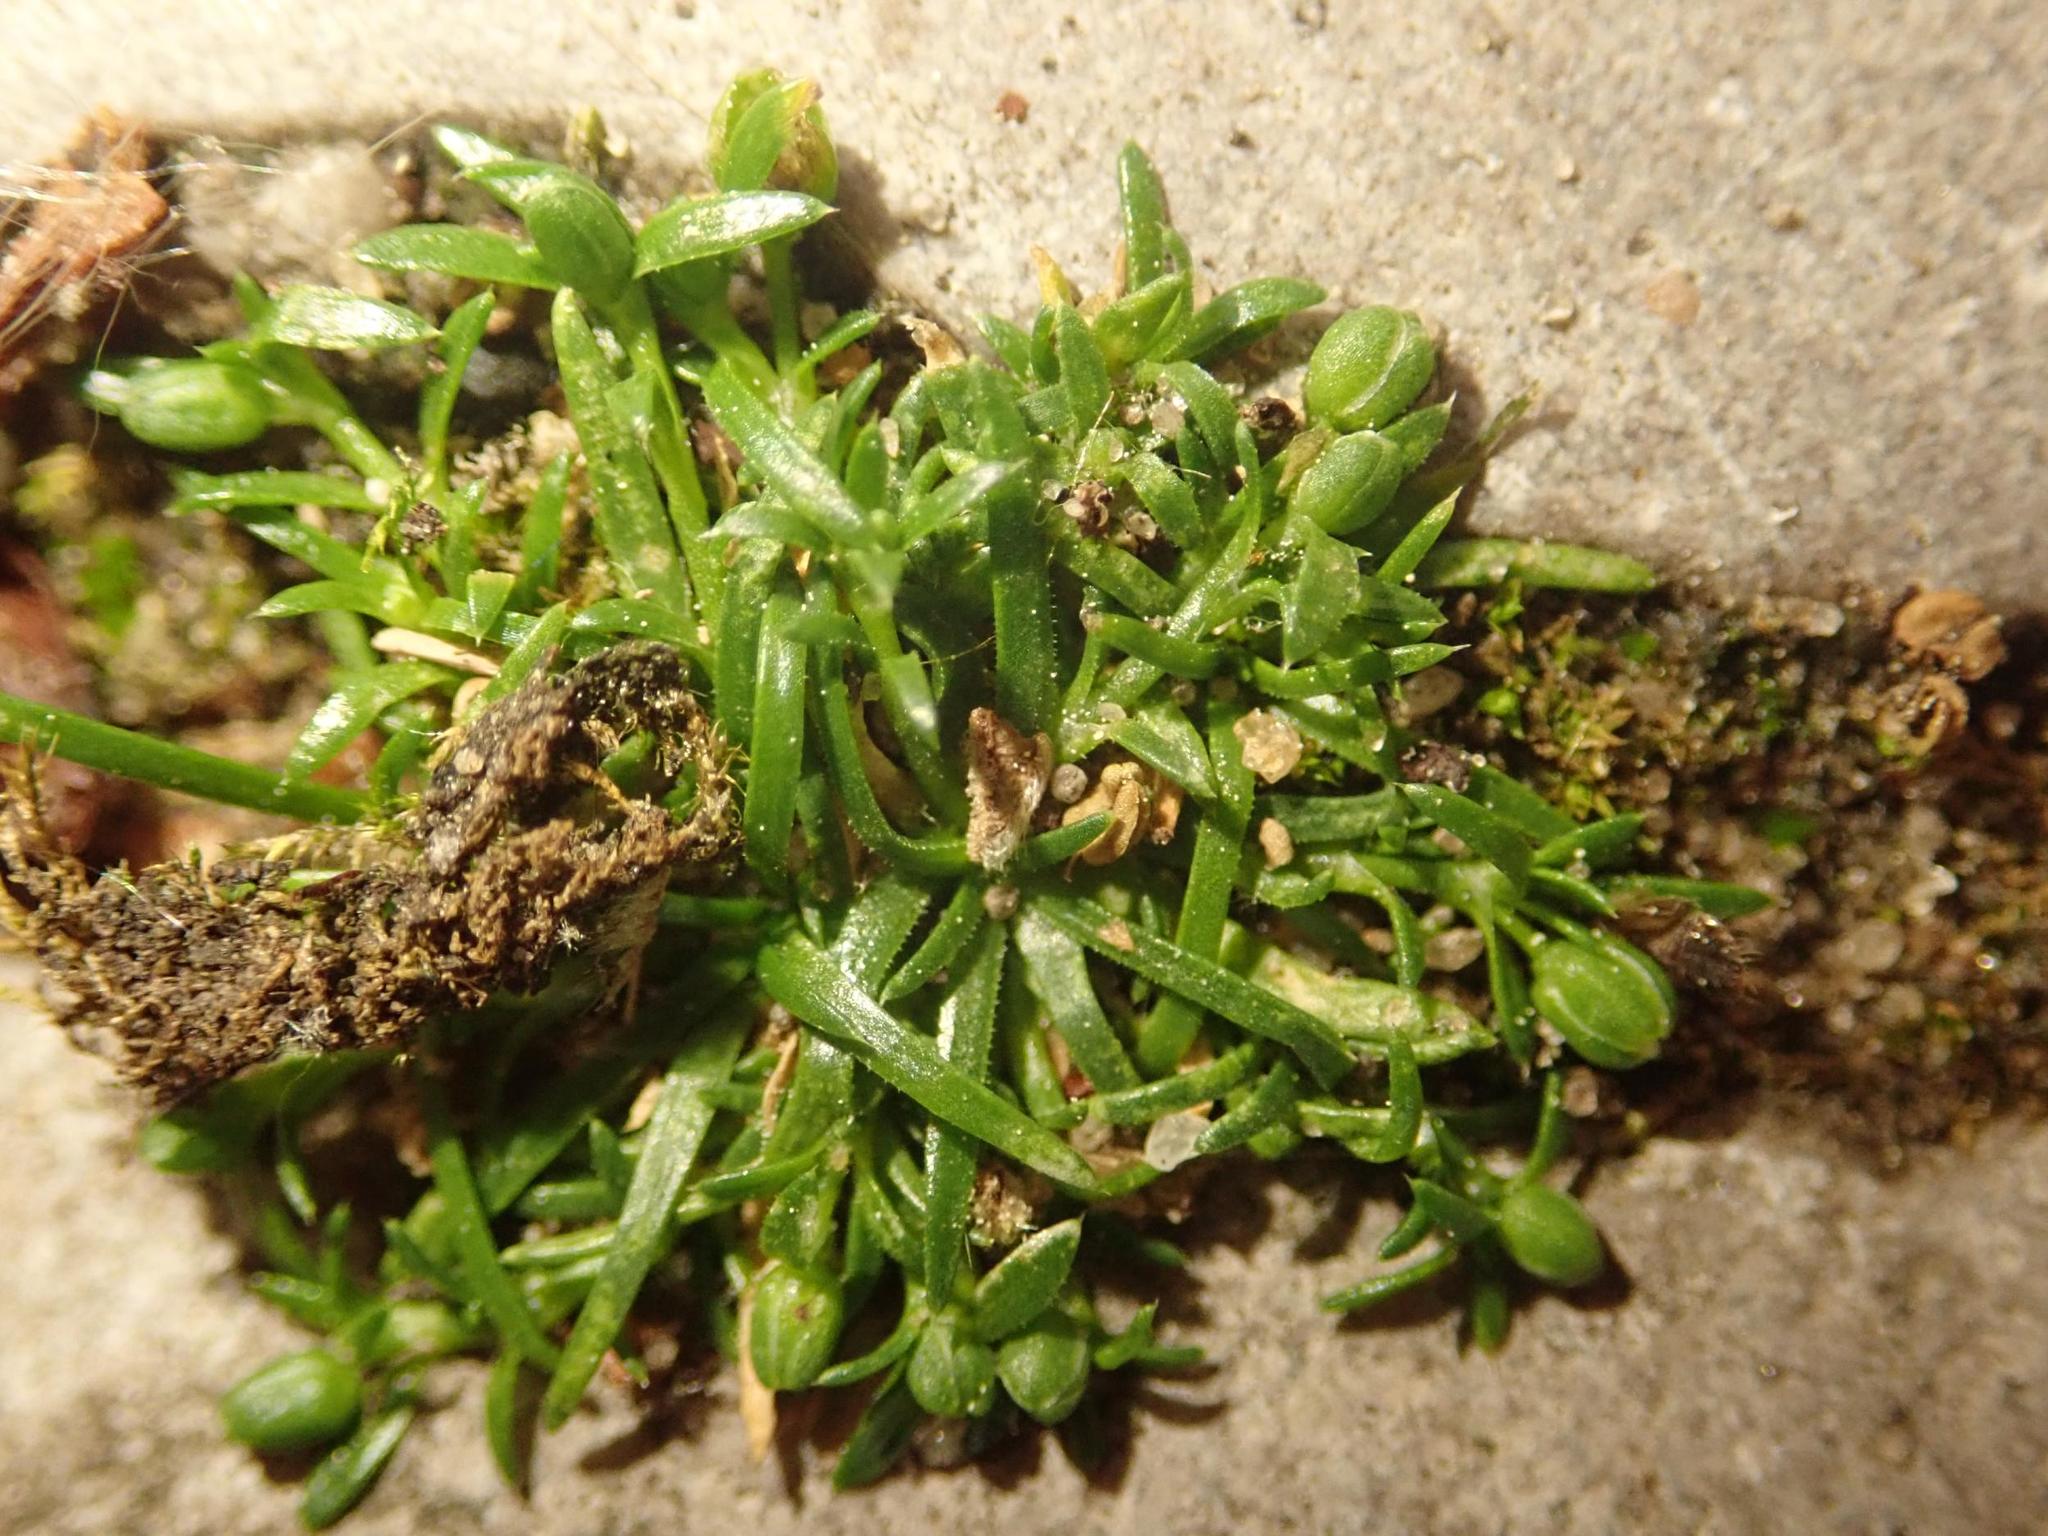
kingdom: Plantae
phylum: Tracheophyta
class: Magnoliopsida
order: Caryophyllales
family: Caryophyllaceae
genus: Sagina
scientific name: Sagina procumbens
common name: Procumbent pearlwort
